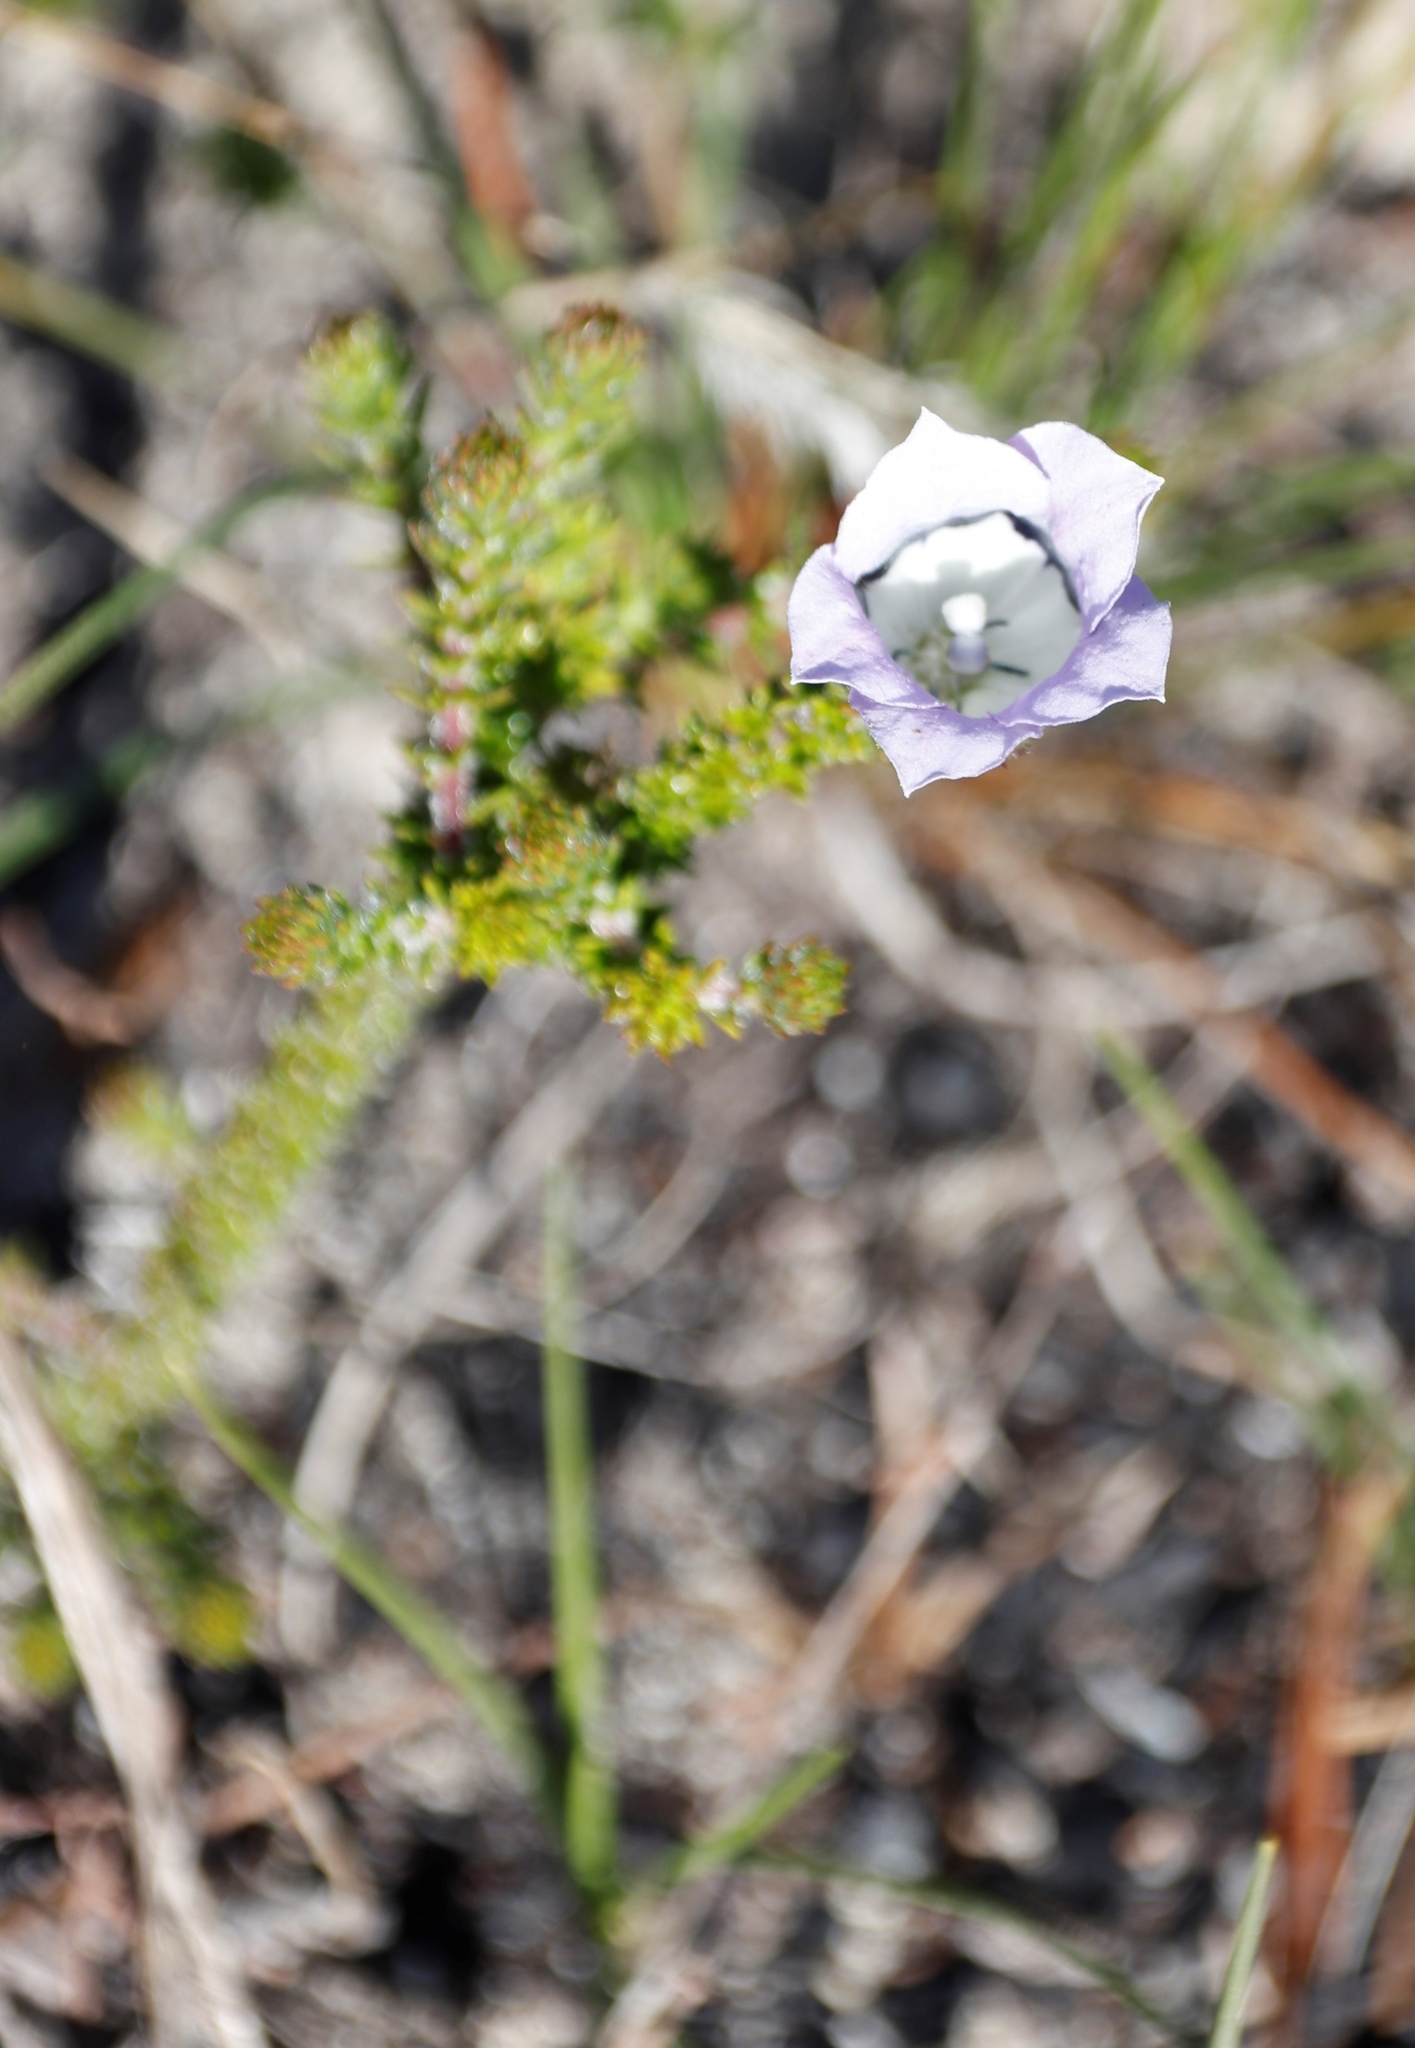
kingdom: Plantae
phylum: Tracheophyta
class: Magnoliopsida
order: Asterales
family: Campanulaceae
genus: Roella
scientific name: Roella ciliata
